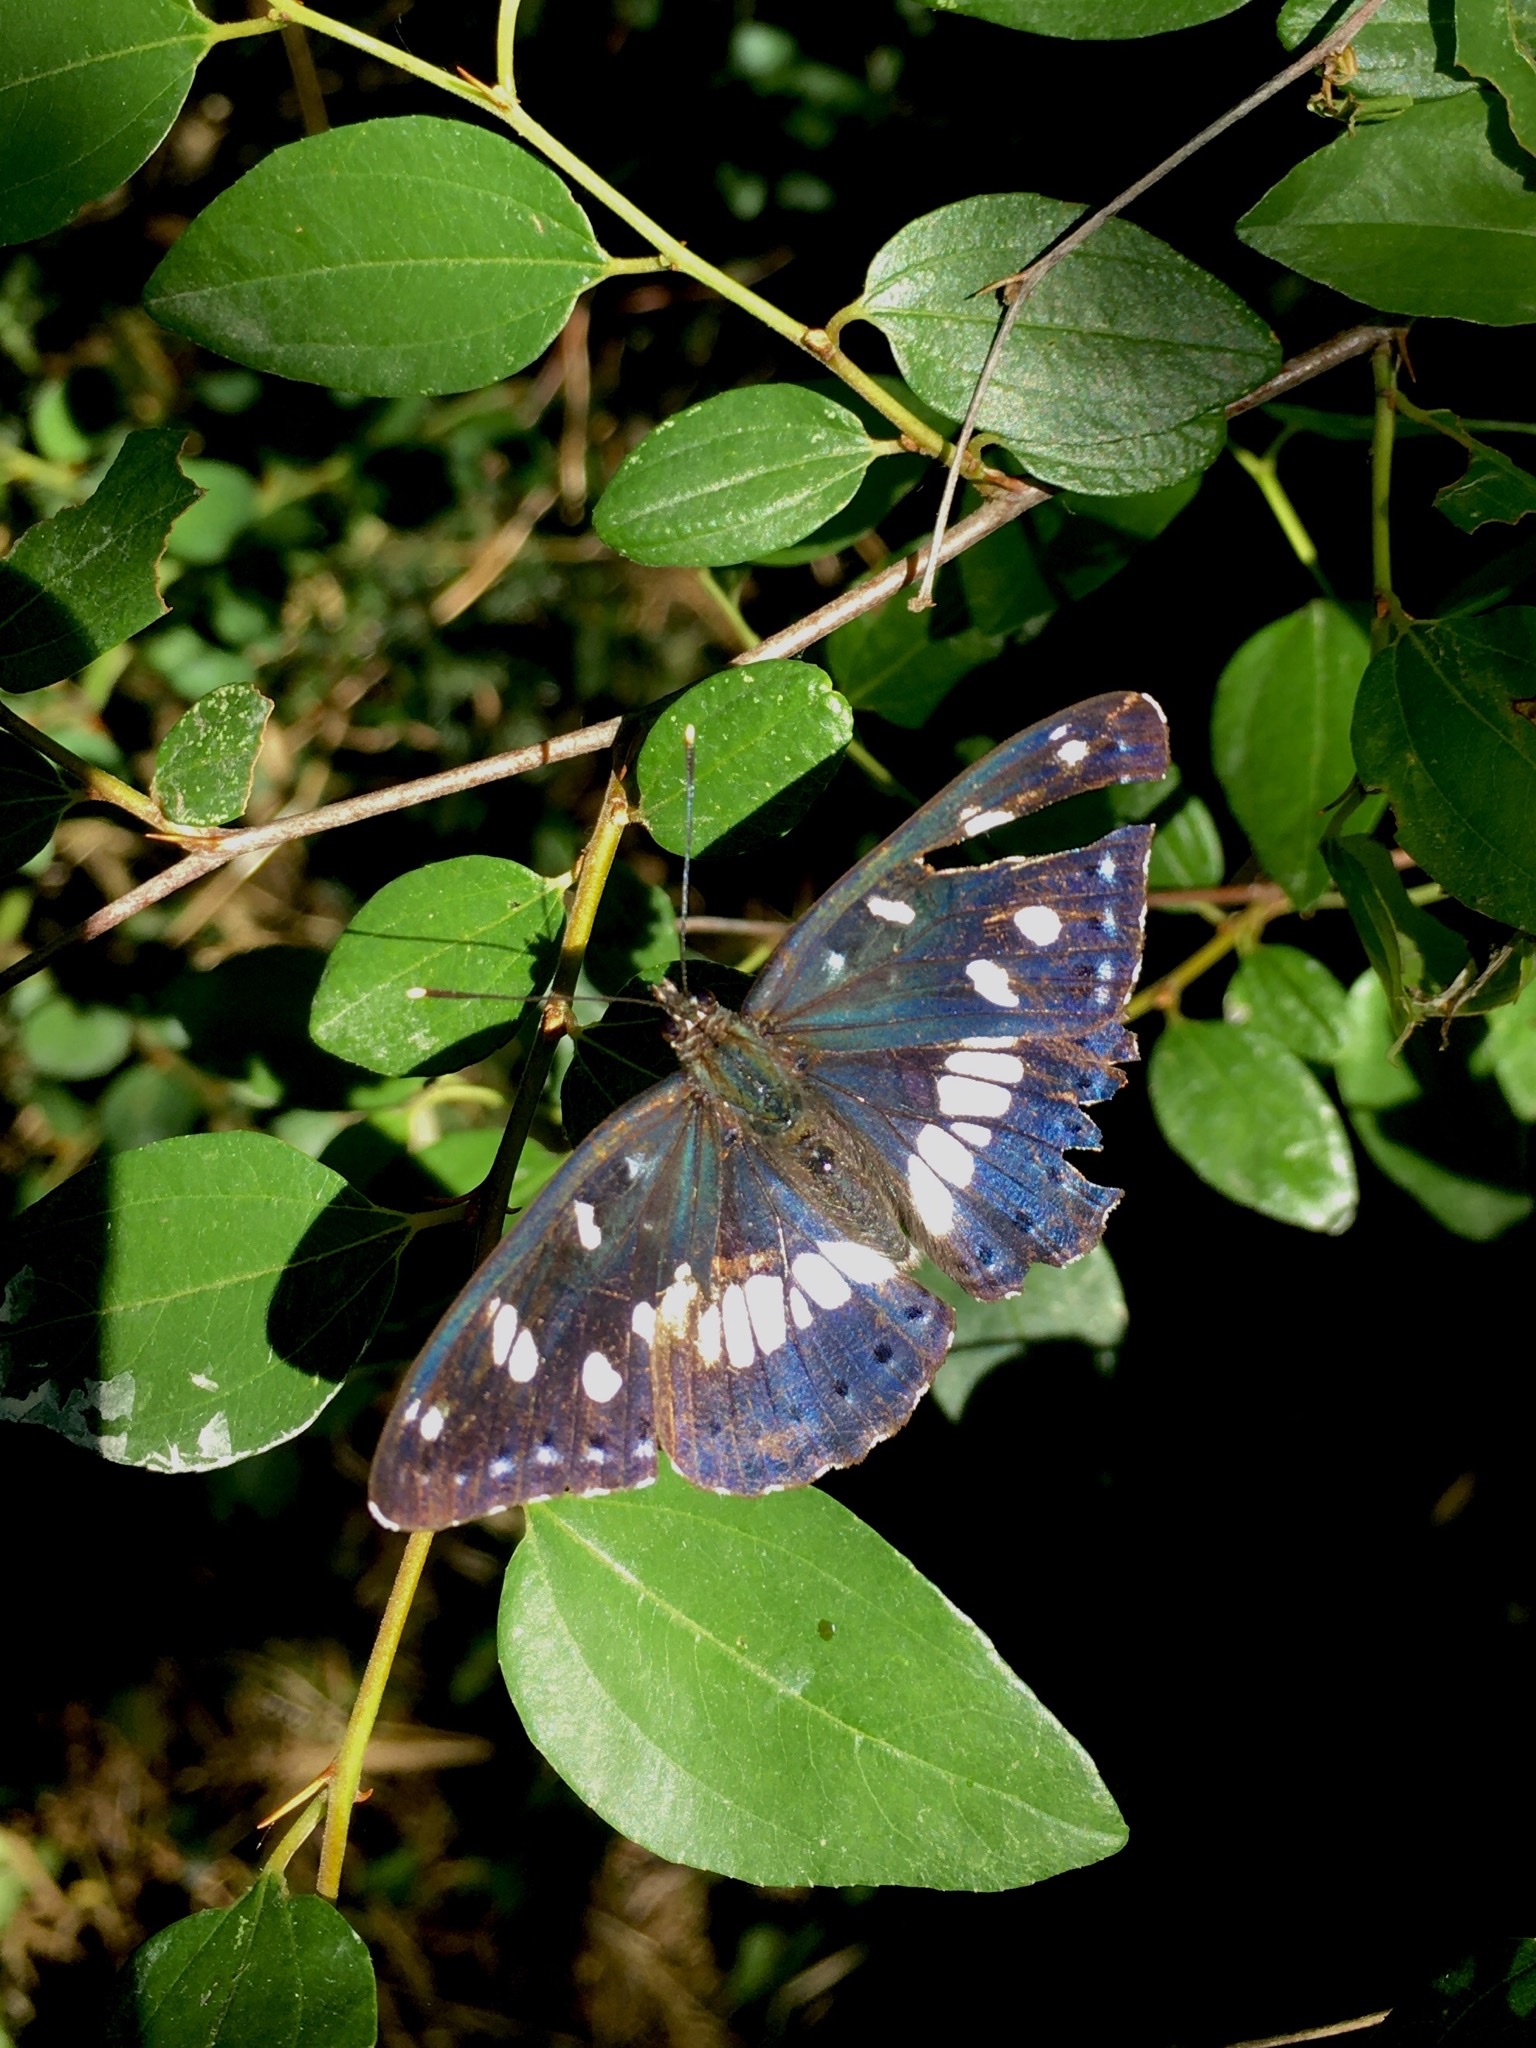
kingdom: Animalia
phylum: Arthropoda
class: Insecta
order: Lepidoptera
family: Nymphalidae
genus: Limenitis
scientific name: Limenitis reducta
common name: Southern white admiral
